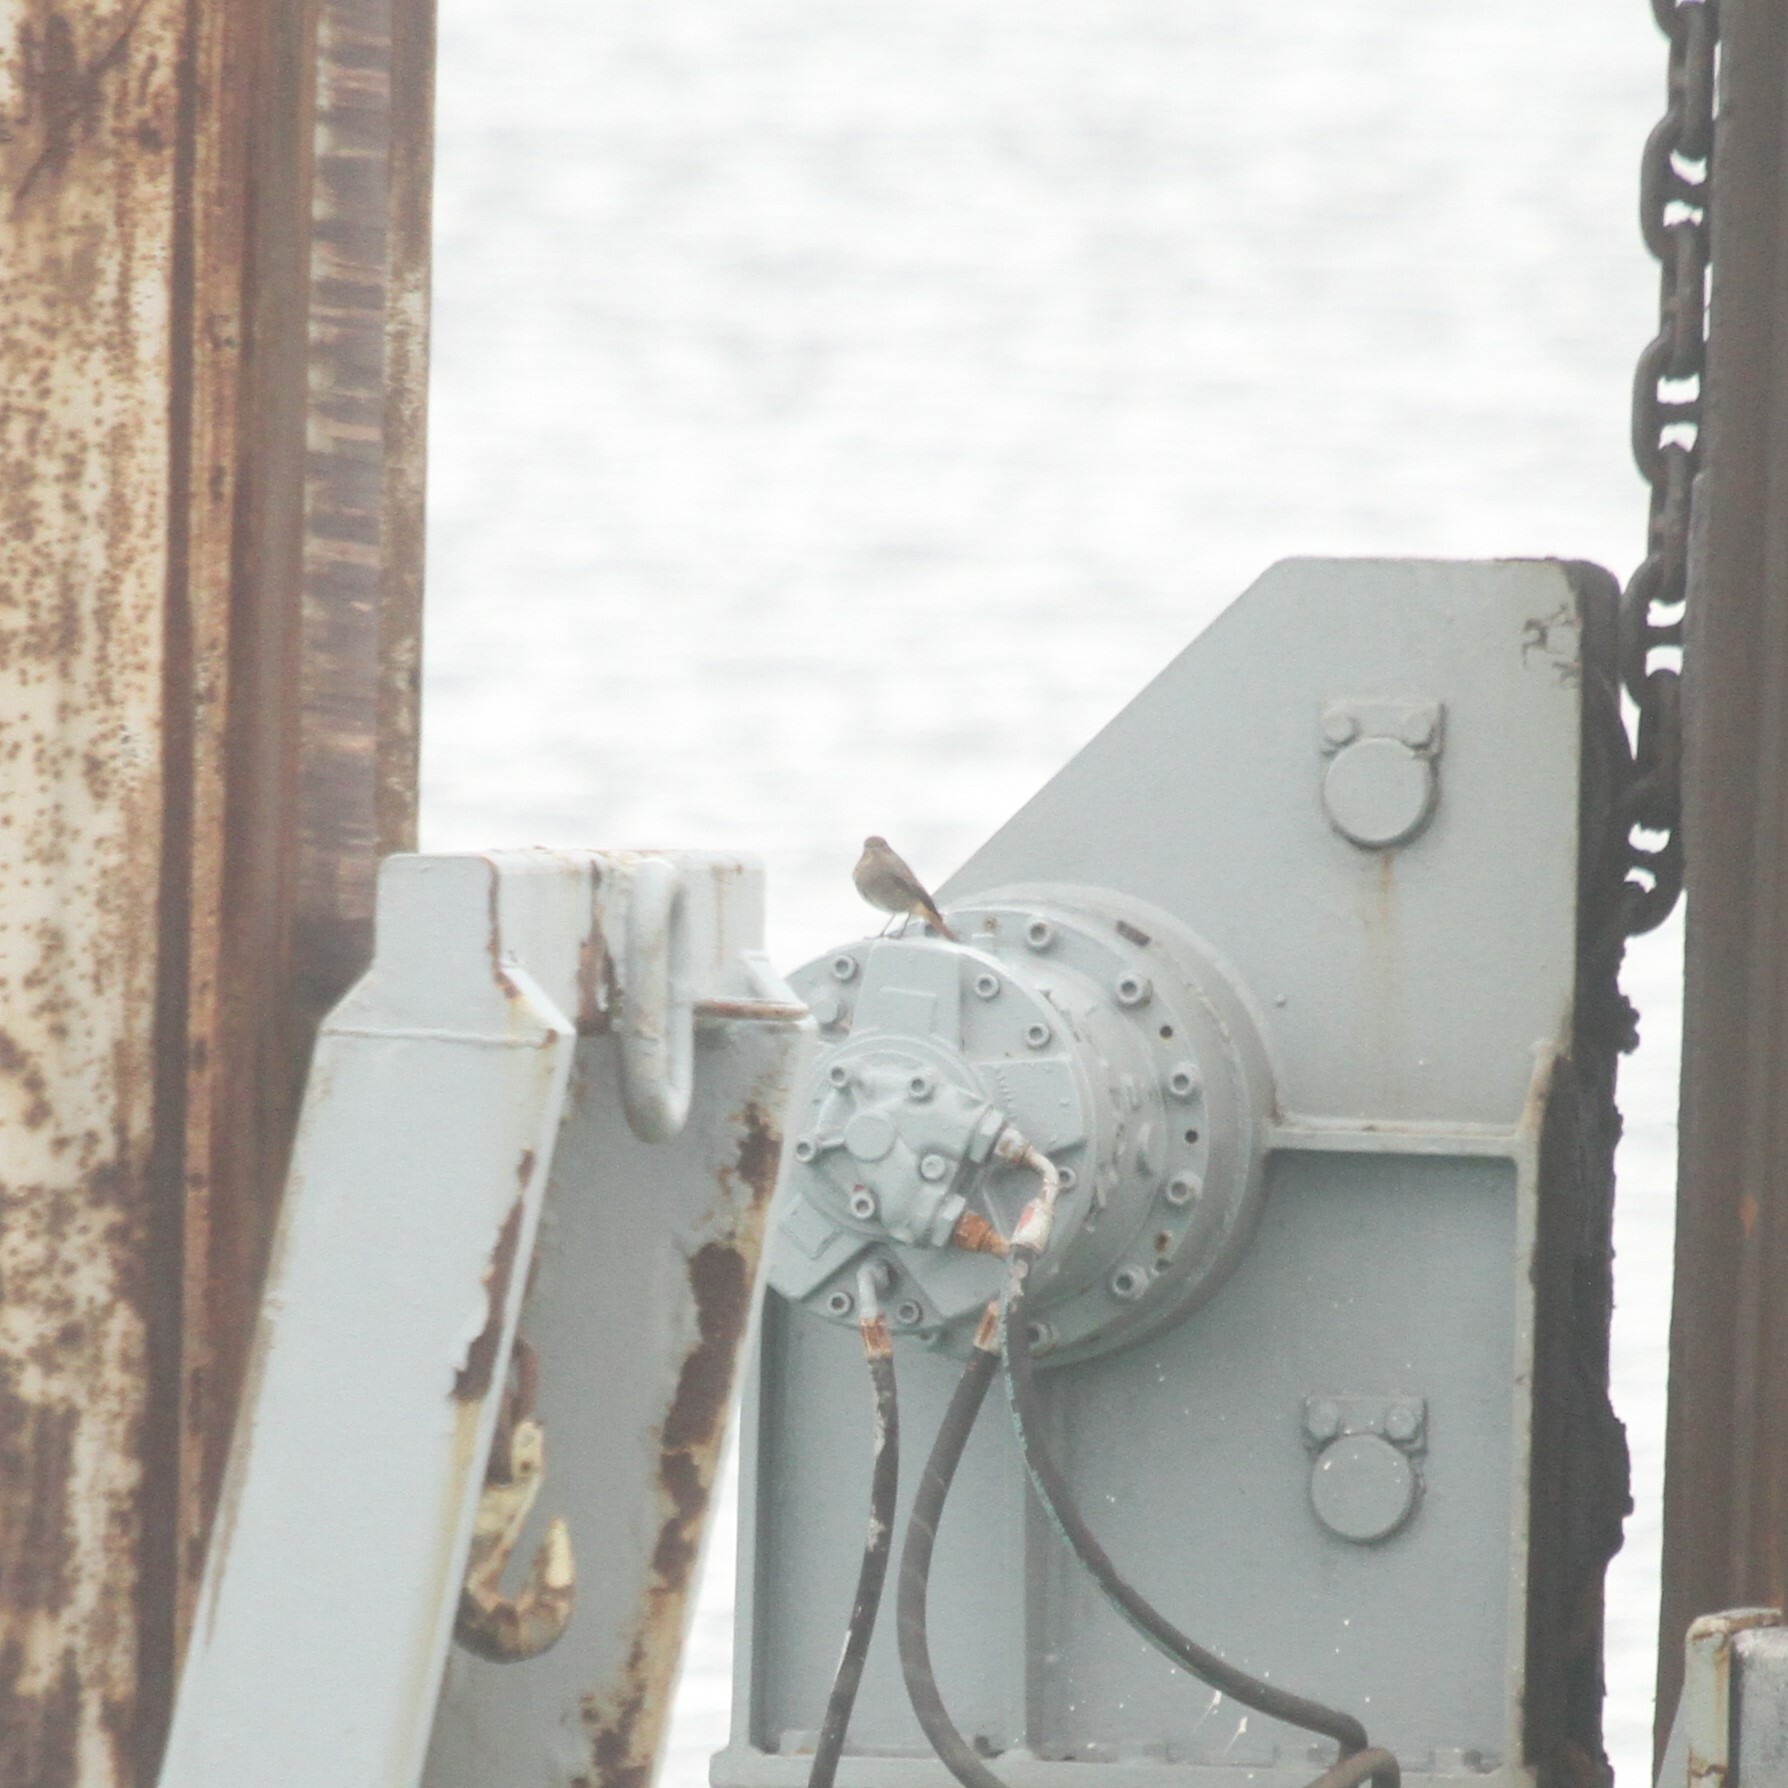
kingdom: Animalia
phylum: Chordata
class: Aves
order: Passeriformes
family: Muscicapidae
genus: Phoenicurus
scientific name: Phoenicurus ochruros
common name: Black redstart
